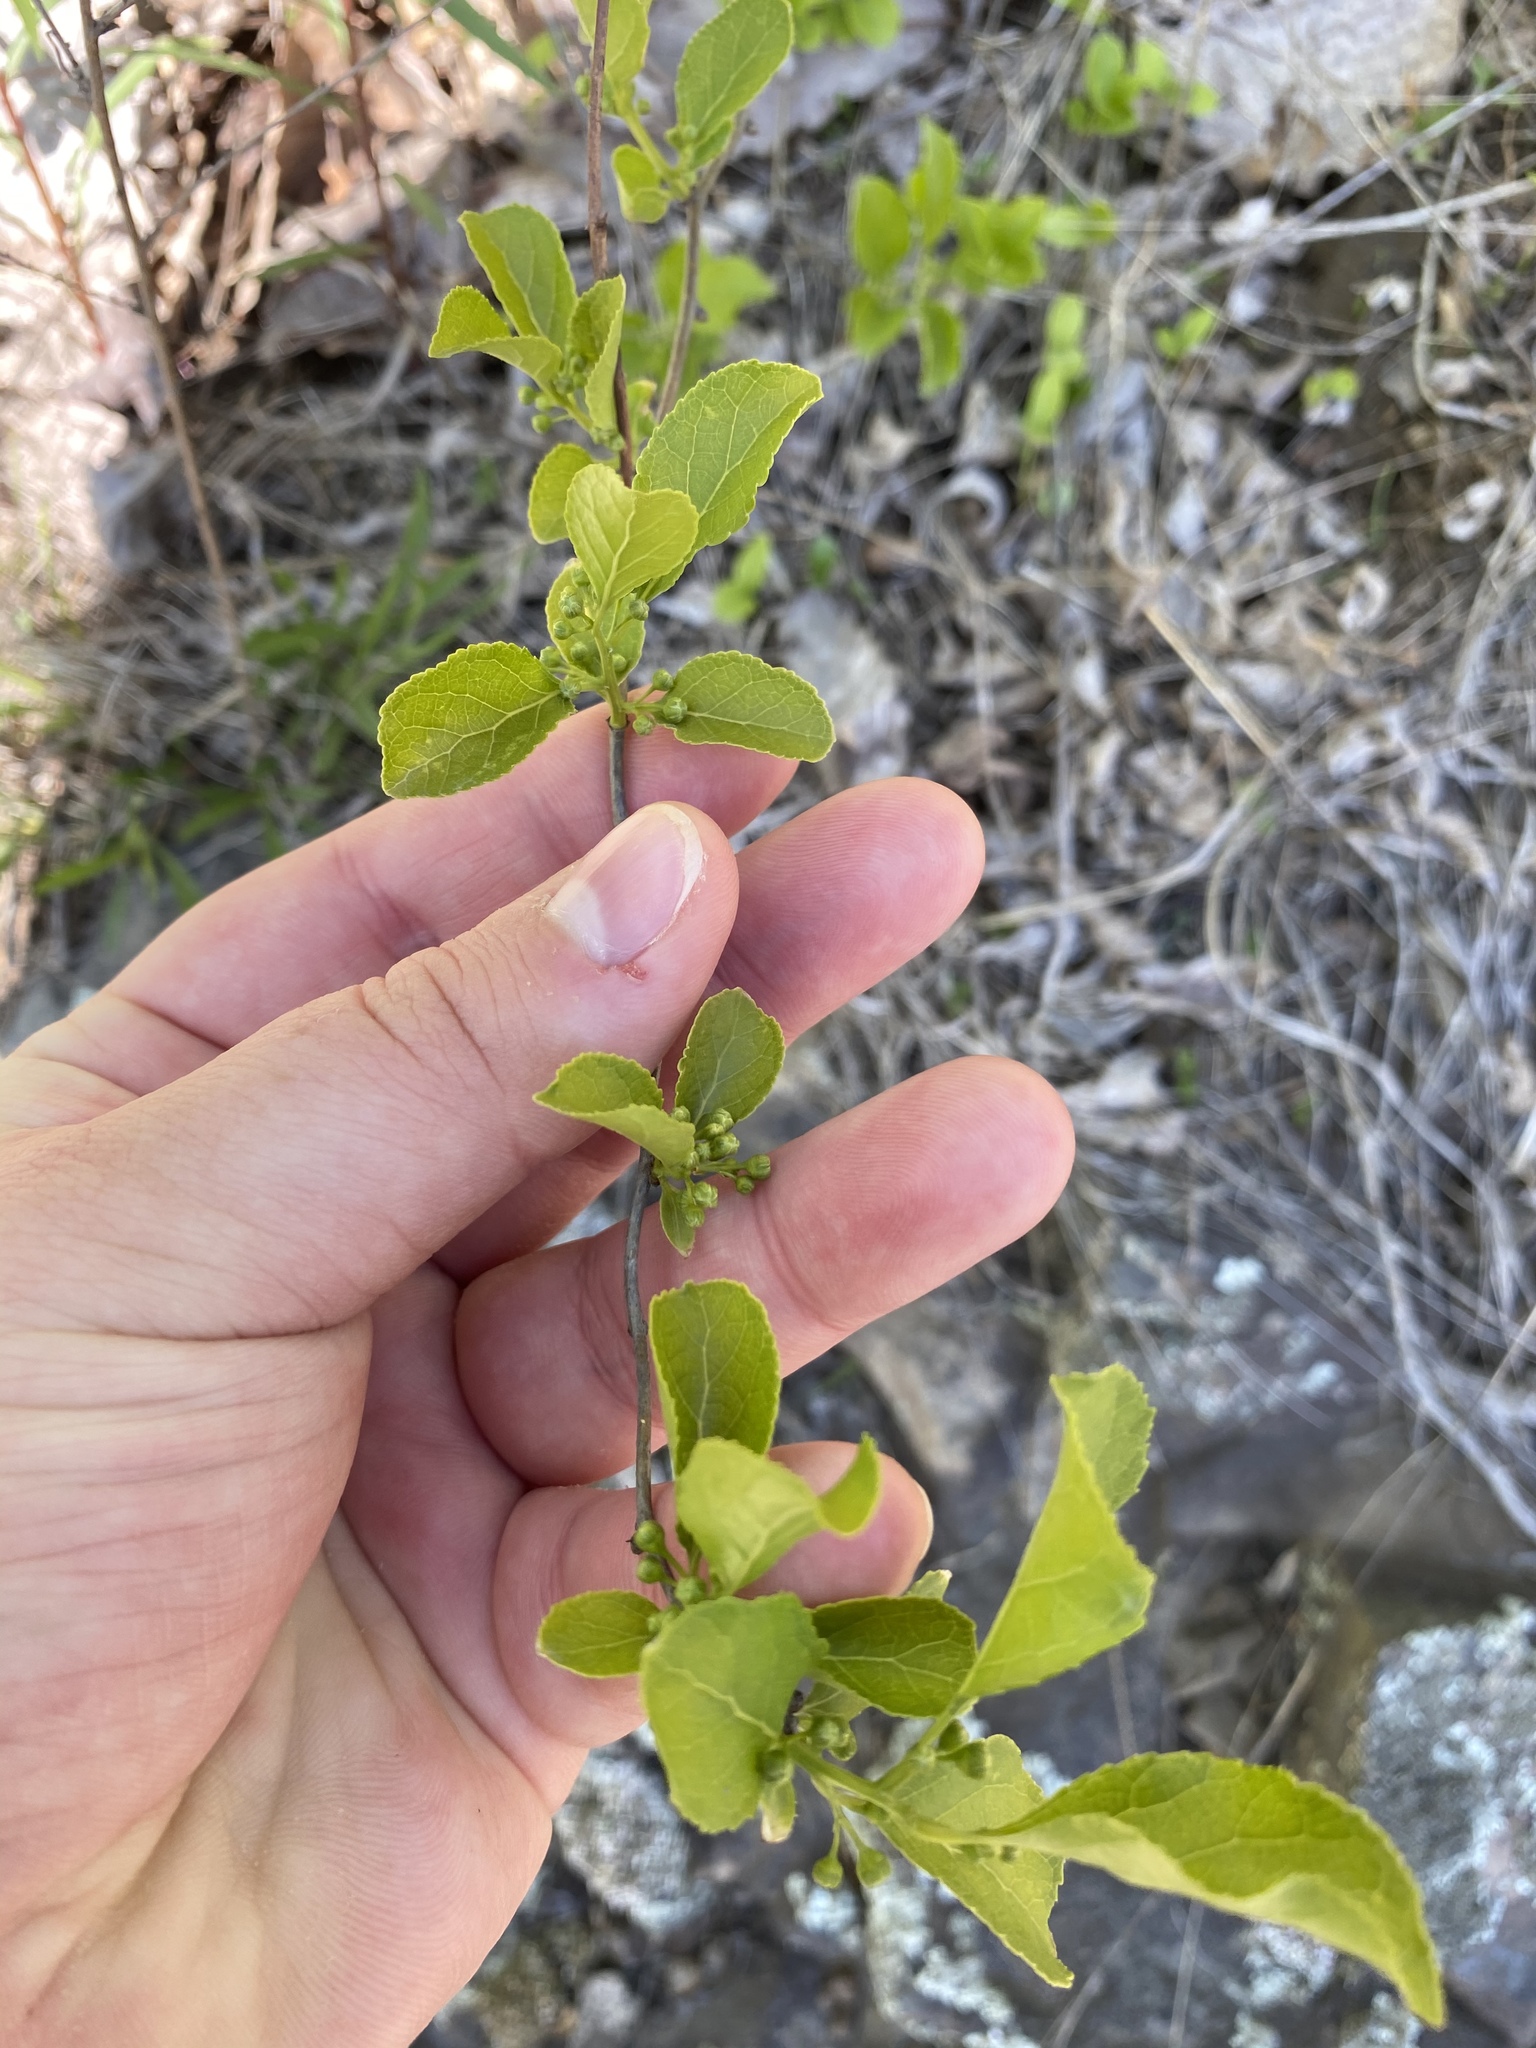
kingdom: Plantae
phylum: Tracheophyta
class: Magnoliopsida
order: Celastrales
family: Celastraceae
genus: Celastrus
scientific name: Celastrus orbiculatus
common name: Oriental bittersweet
